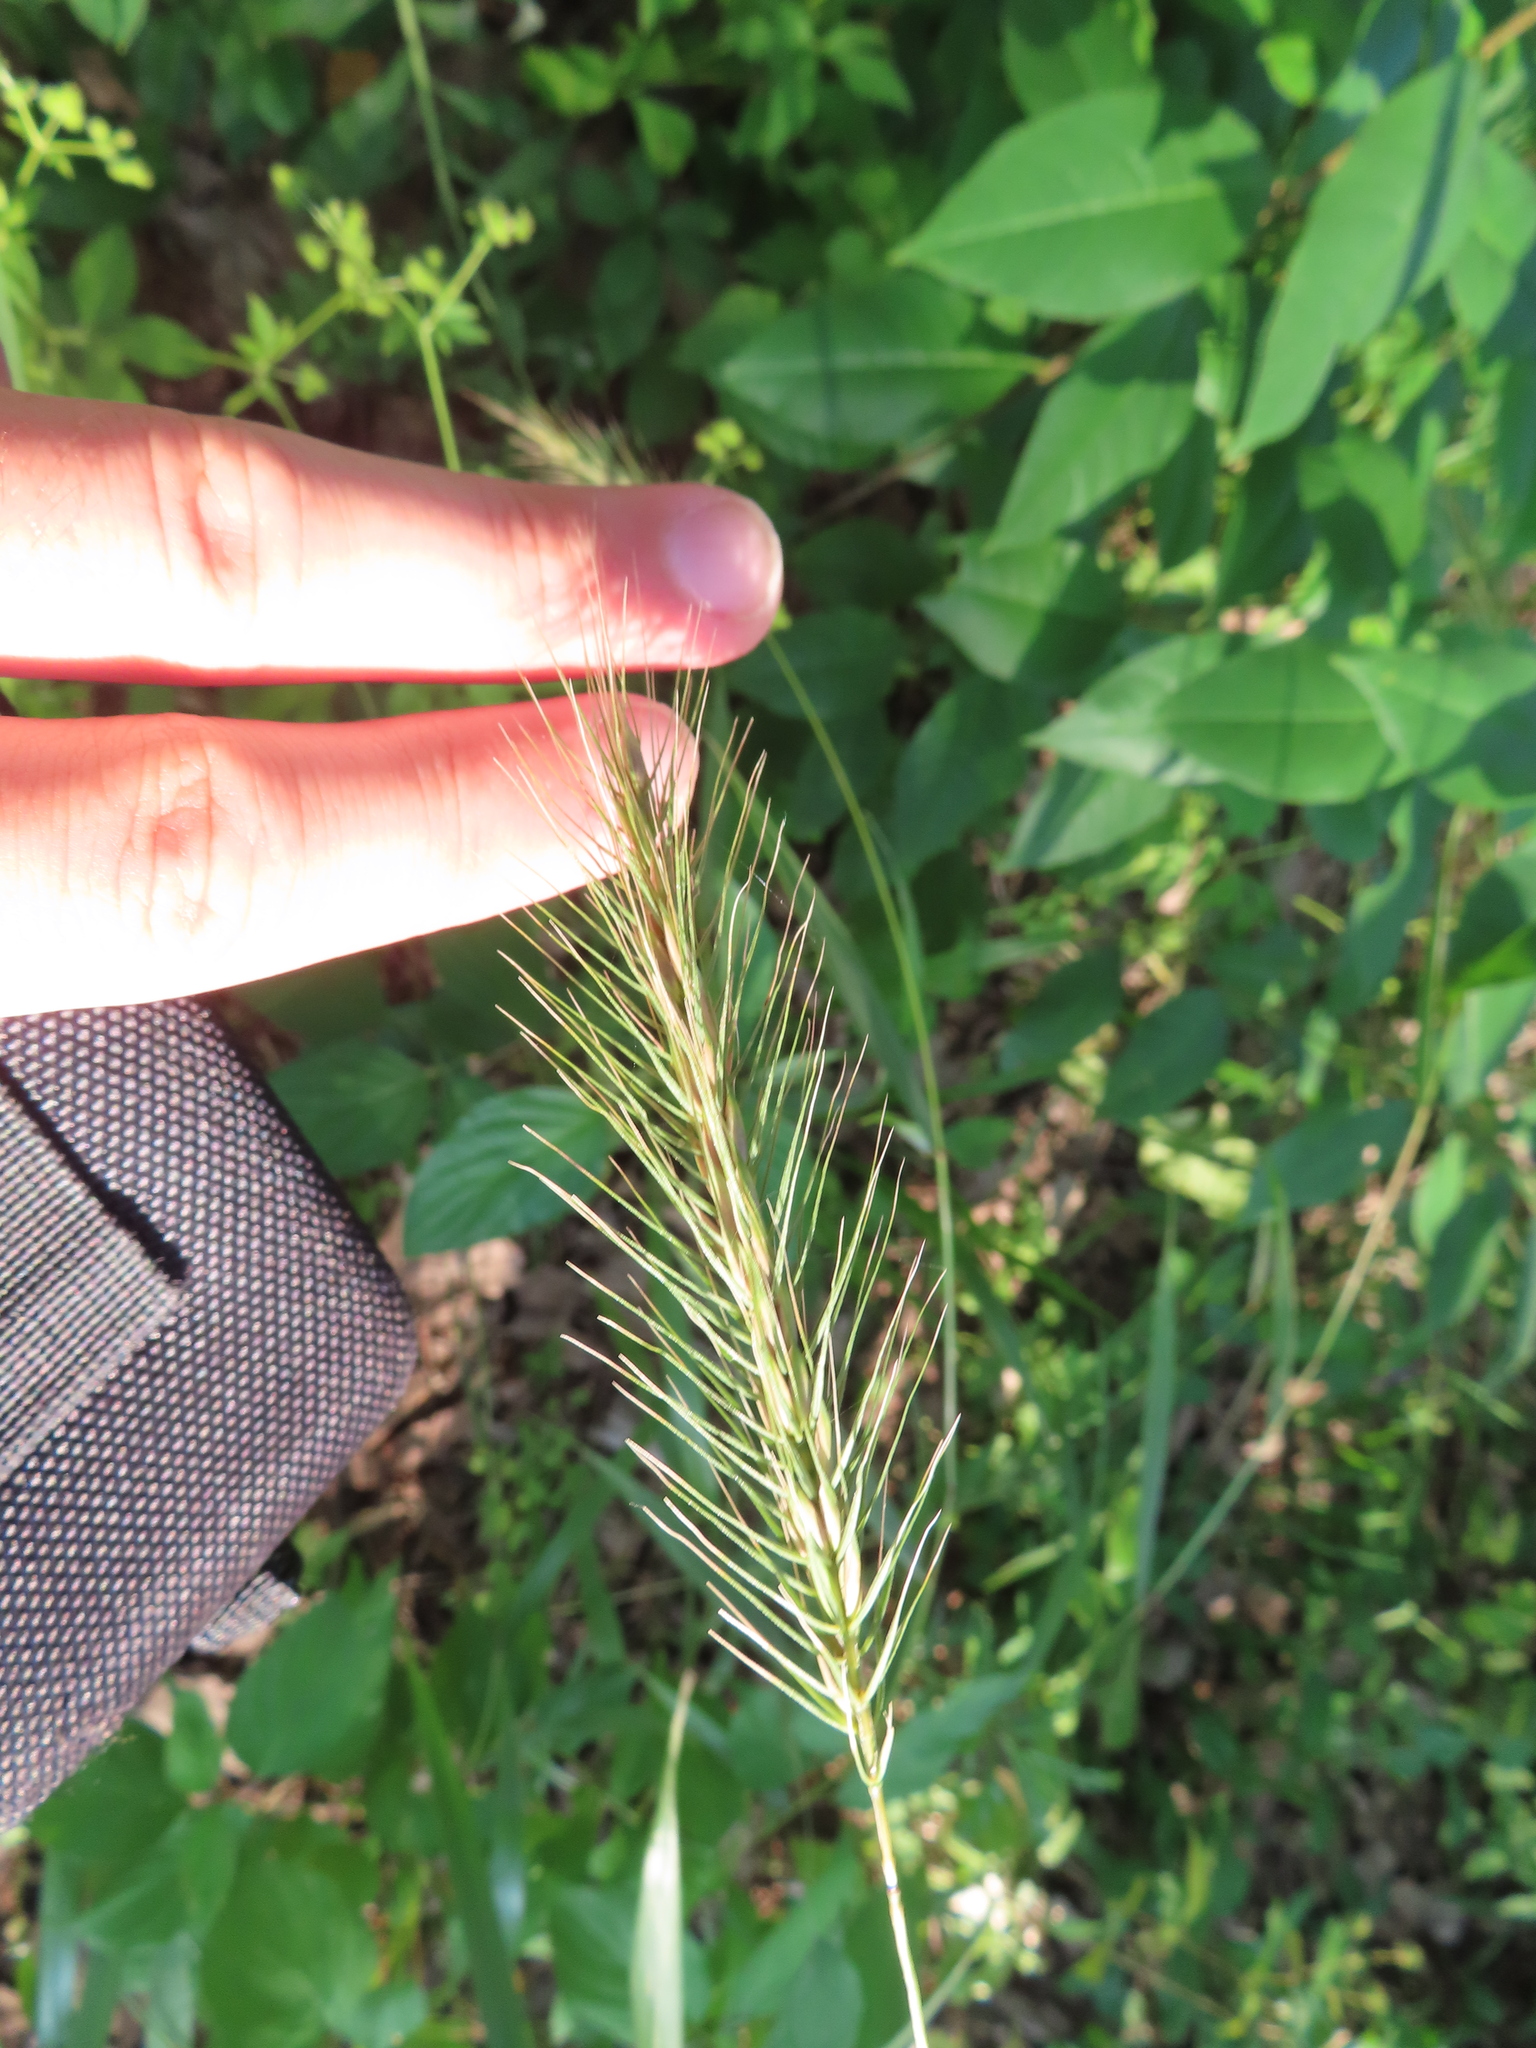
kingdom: Plantae
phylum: Tracheophyta
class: Liliopsida
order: Poales
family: Poaceae
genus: Elymus
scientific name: Elymus villosus
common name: Downy wild rye
